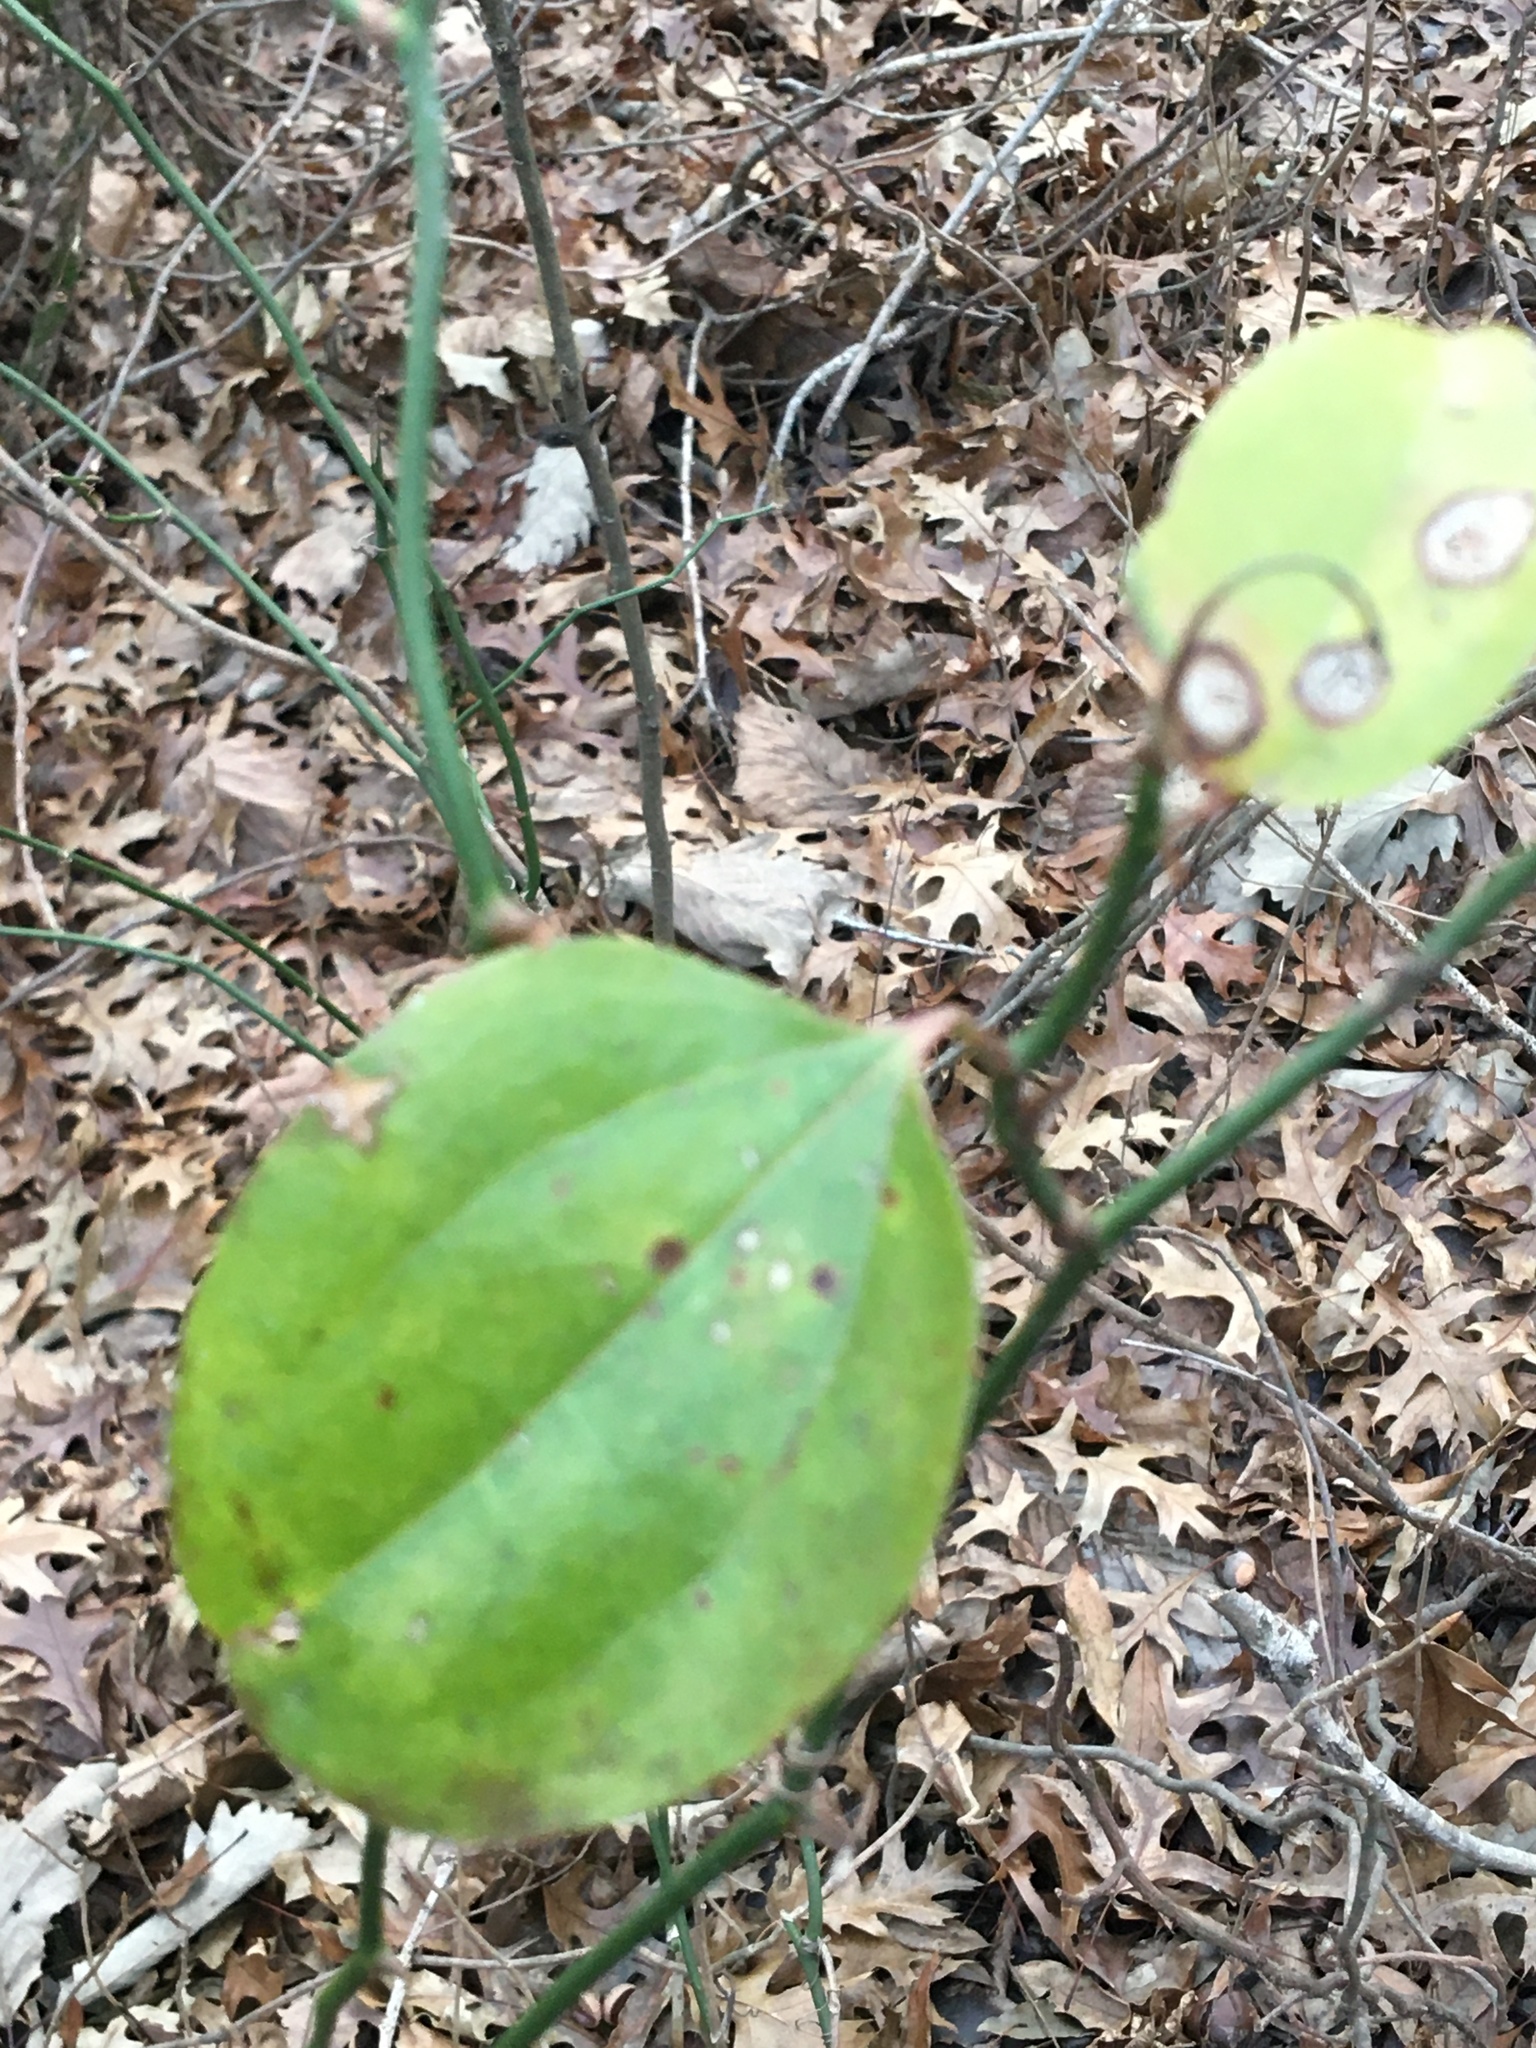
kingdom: Plantae
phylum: Tracheophyta
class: Liliopsida
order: Liliales
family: Smilacaceae
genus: Smilax
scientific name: Smilax rotundifolia
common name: Bullbriar
